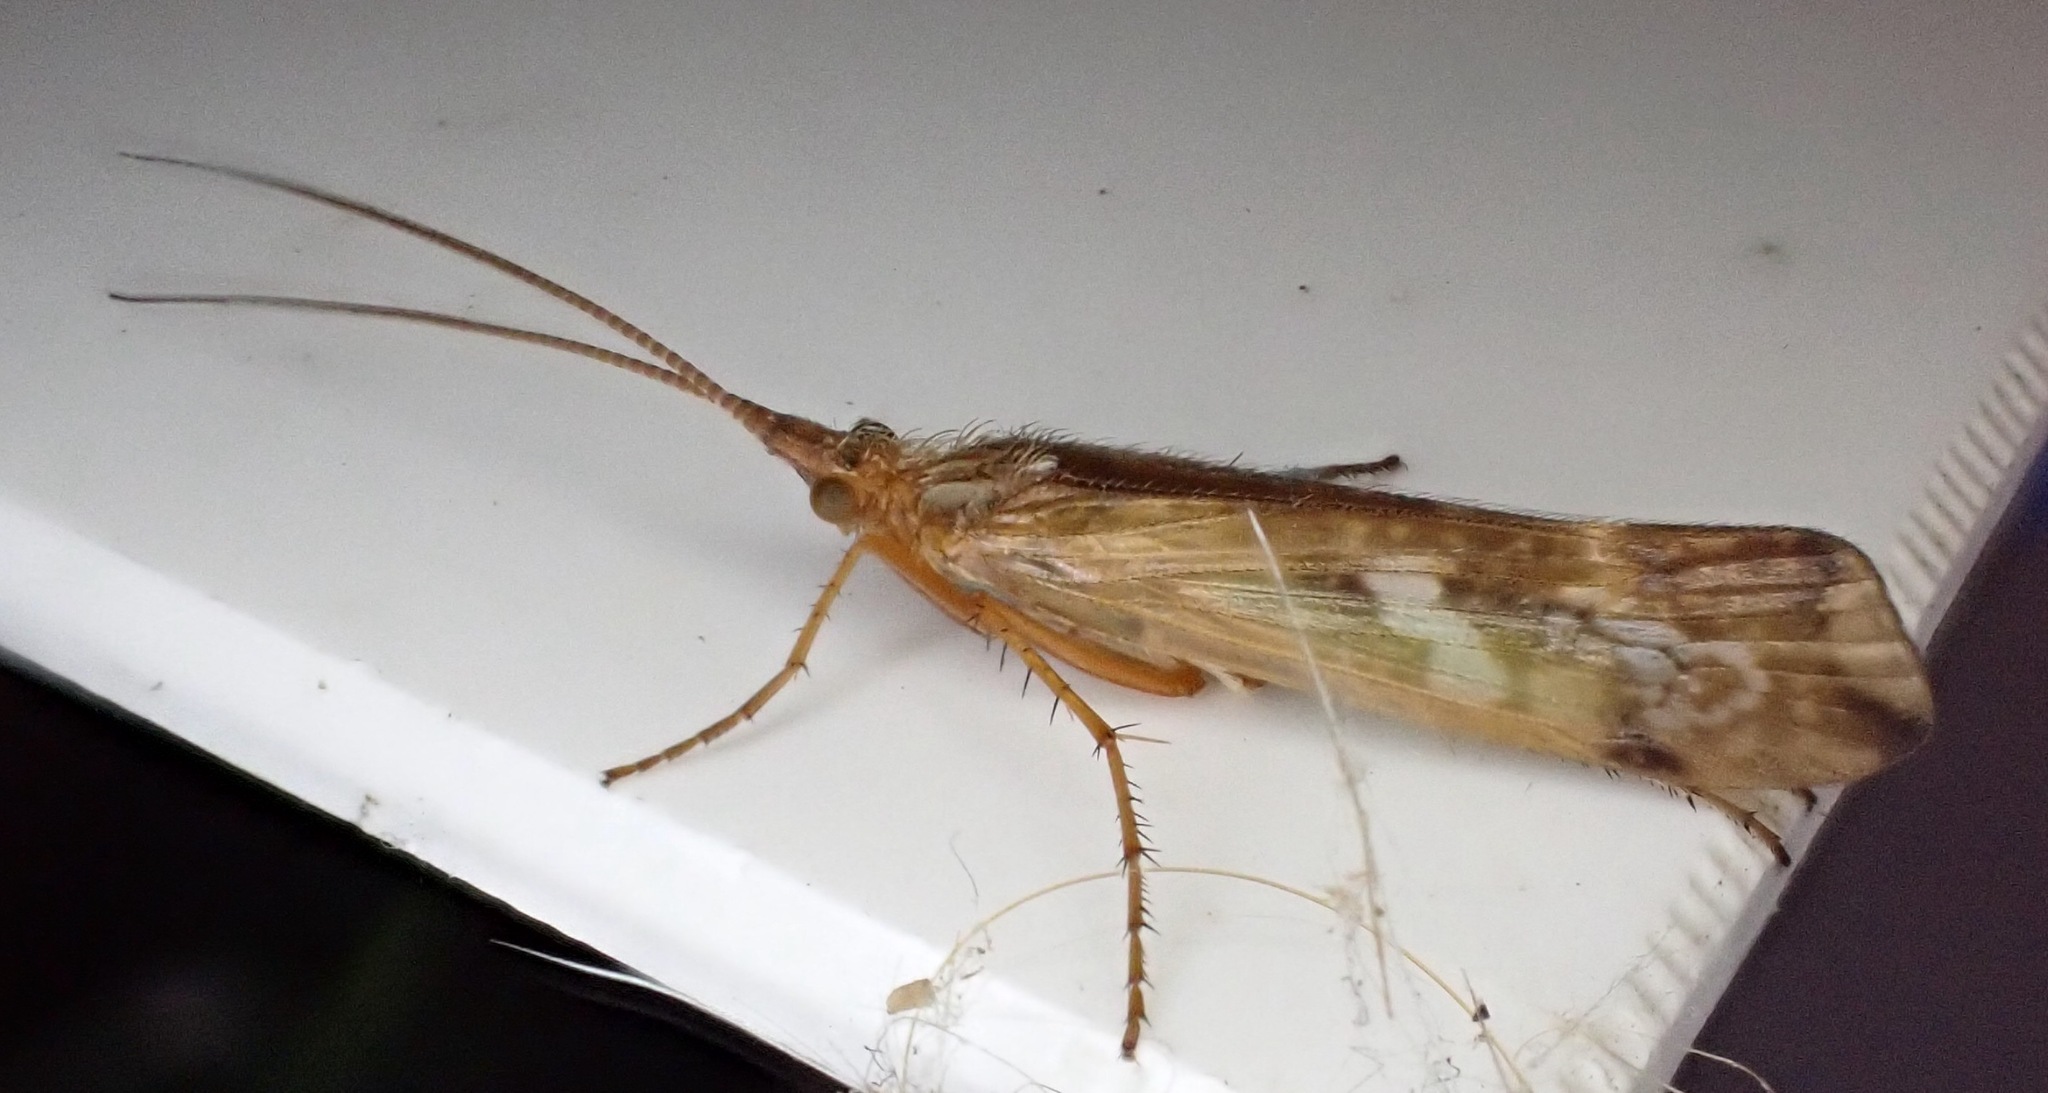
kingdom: Animalia
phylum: Arthropoda
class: Insecta
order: Trichoptera
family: Limnephilidae
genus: Limnephilus
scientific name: Limnephilus lunatus
